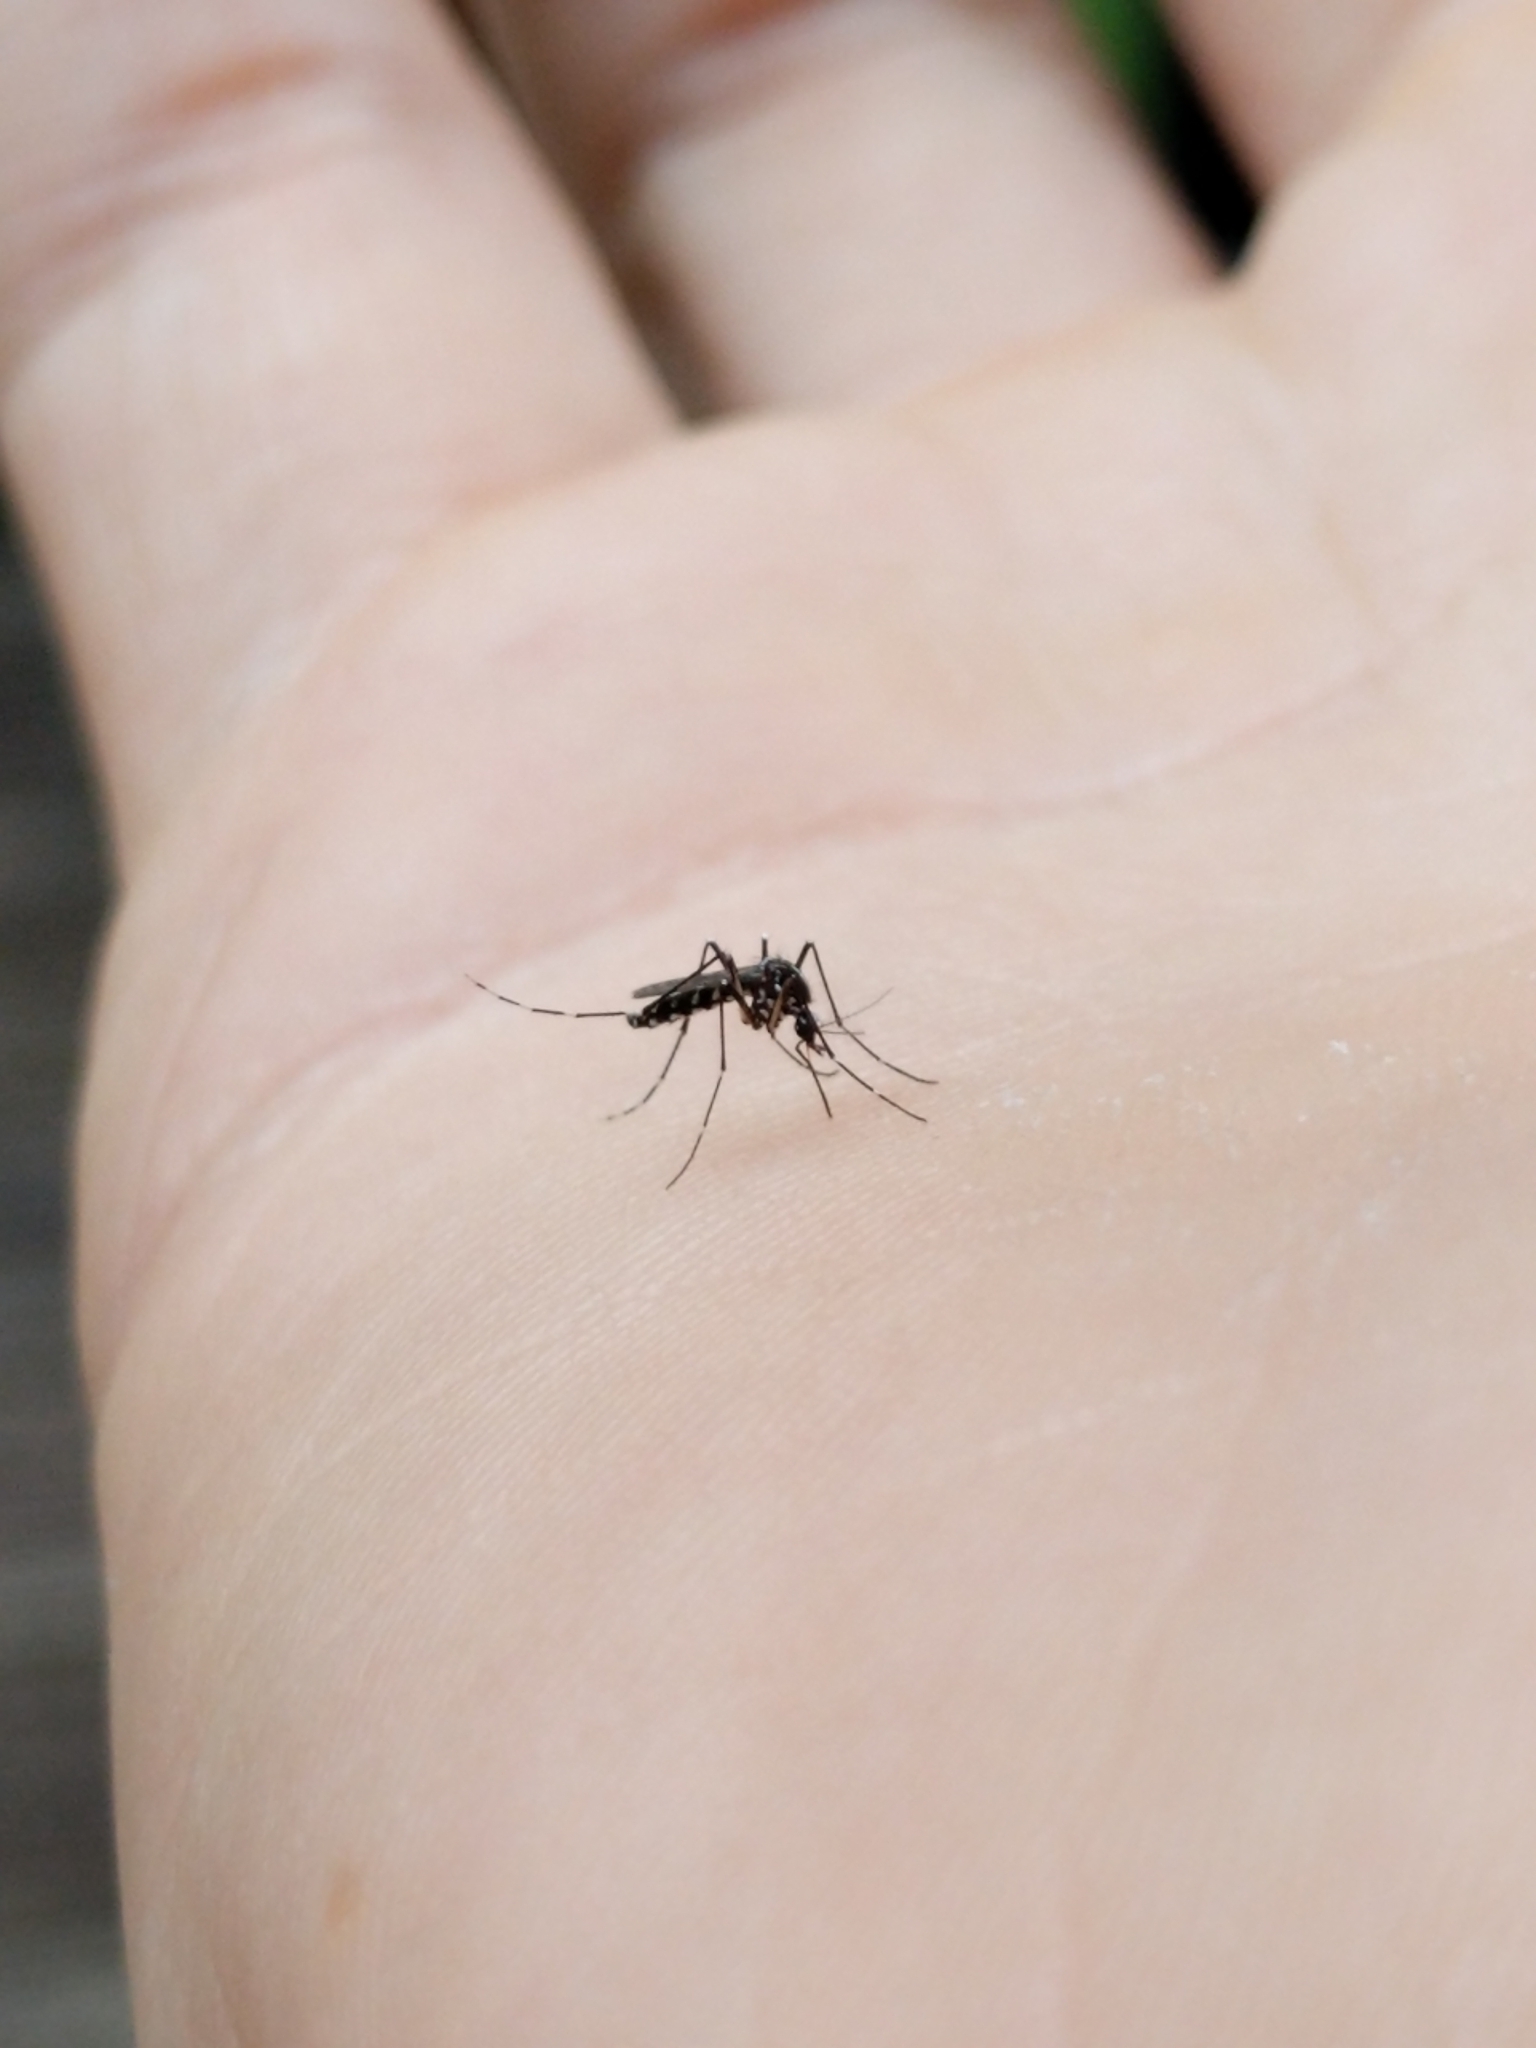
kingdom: Animalia
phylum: Arthropoda
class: Insecta
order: Diptera
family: Culicidae
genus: Aedes
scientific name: Aedes albopictus
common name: Tiger mosquito
